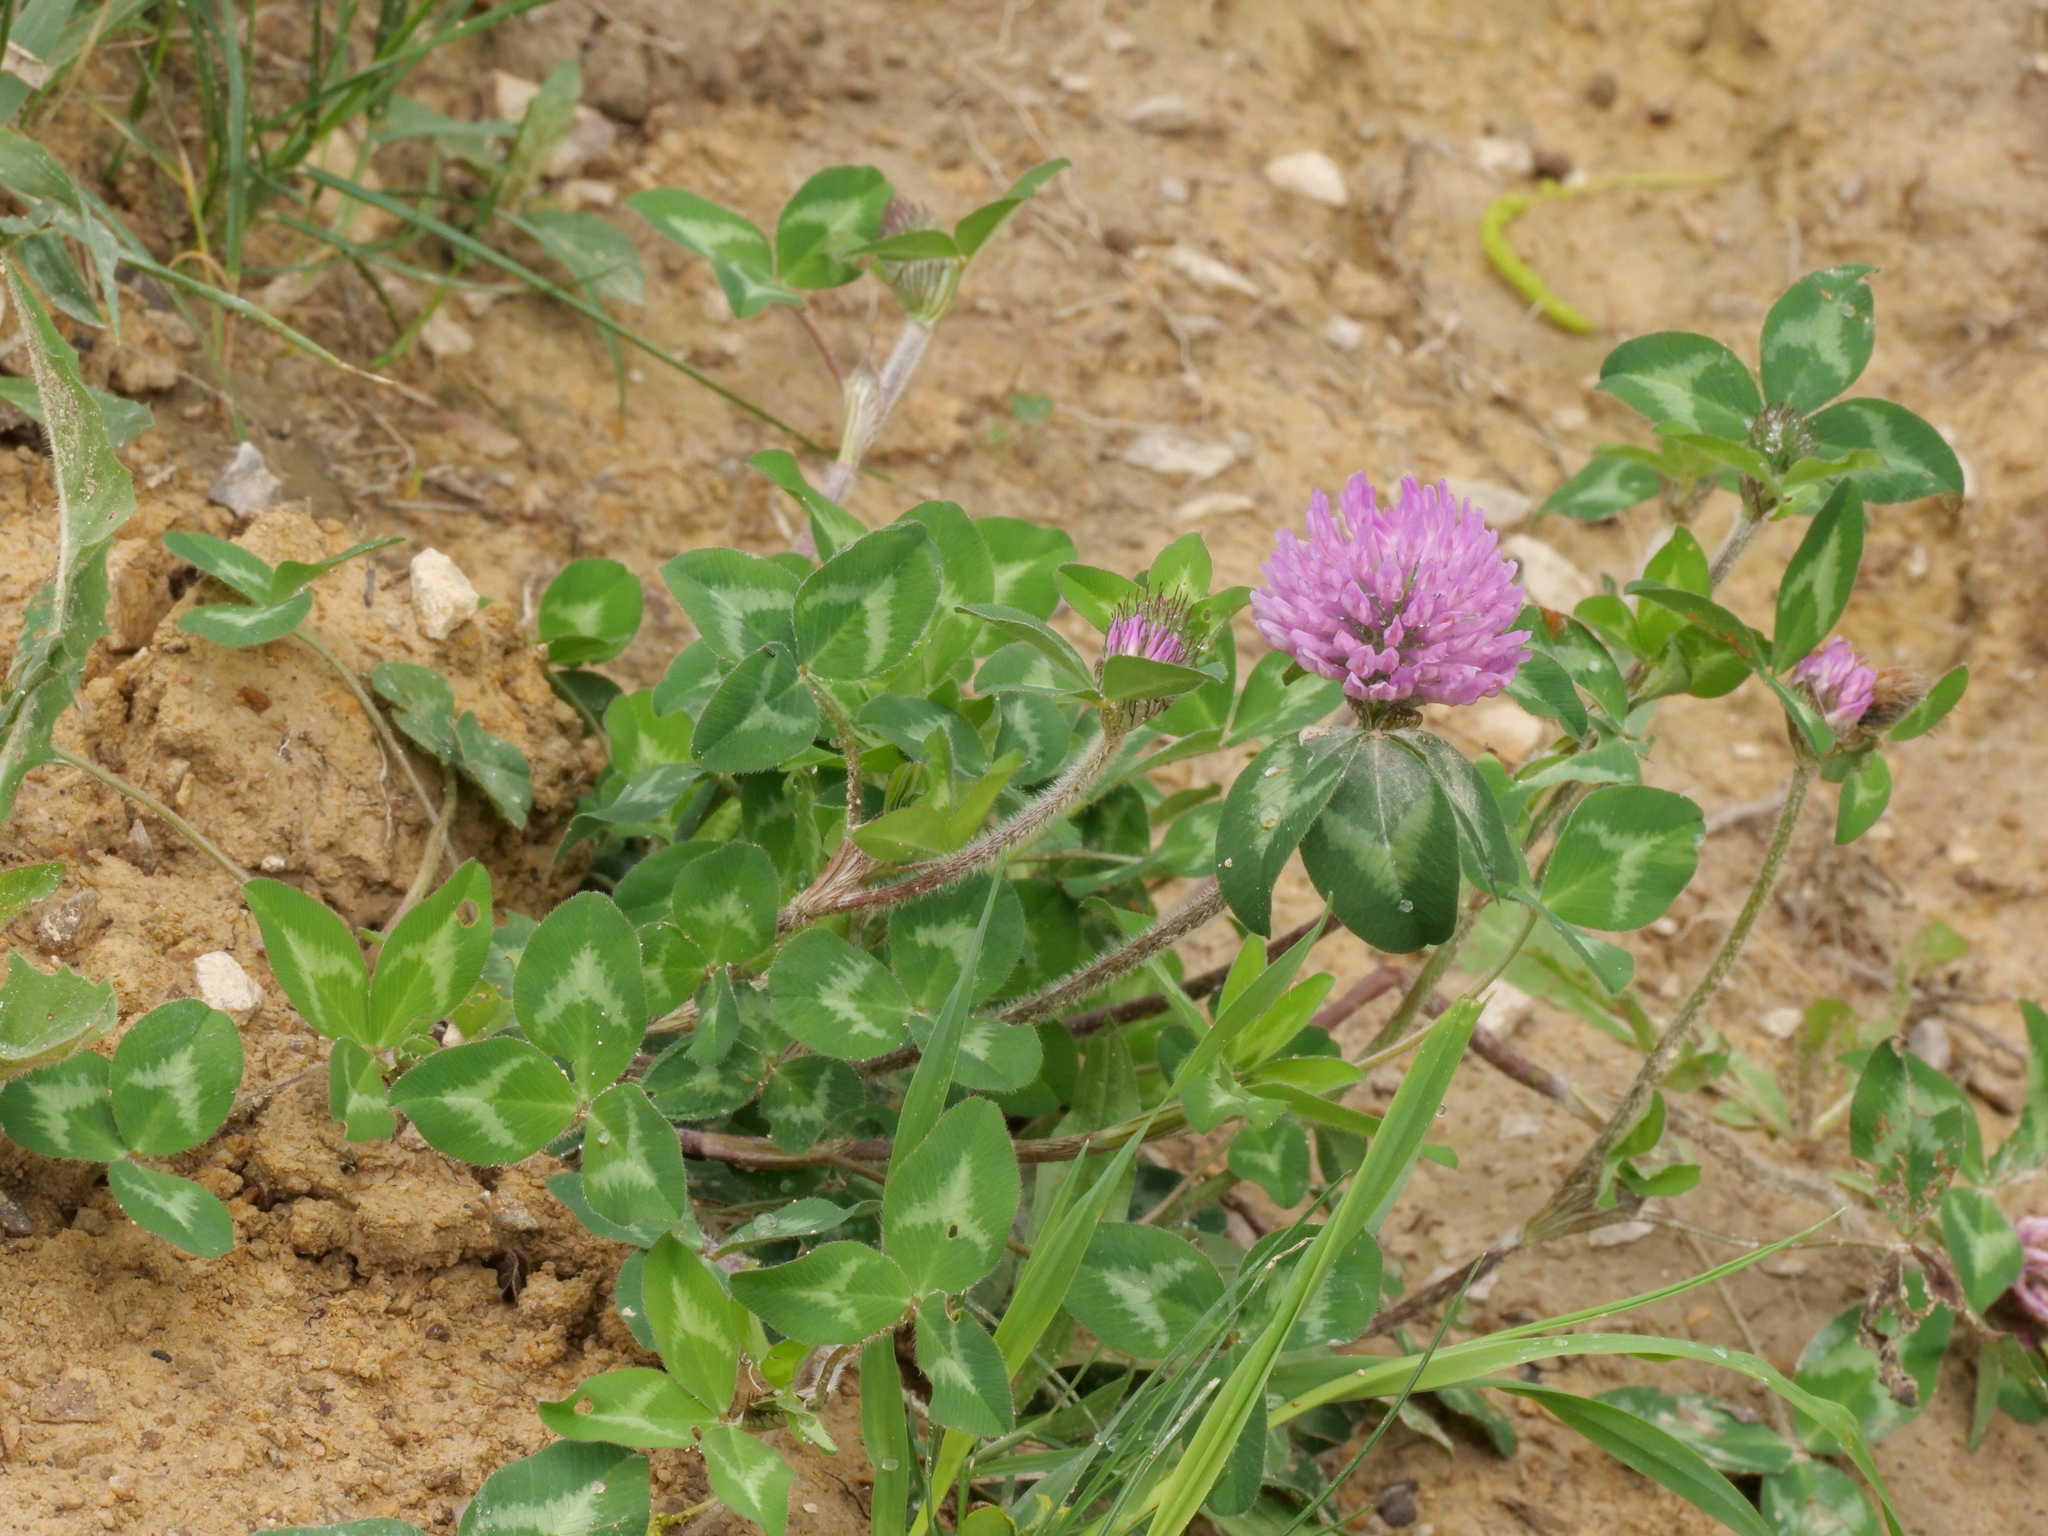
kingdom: Plantae
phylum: Tracheophyta
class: Magnoliopsida
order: Fabales
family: Fabaceae
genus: Trifolium
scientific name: Trifolium pratense
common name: Red clover
